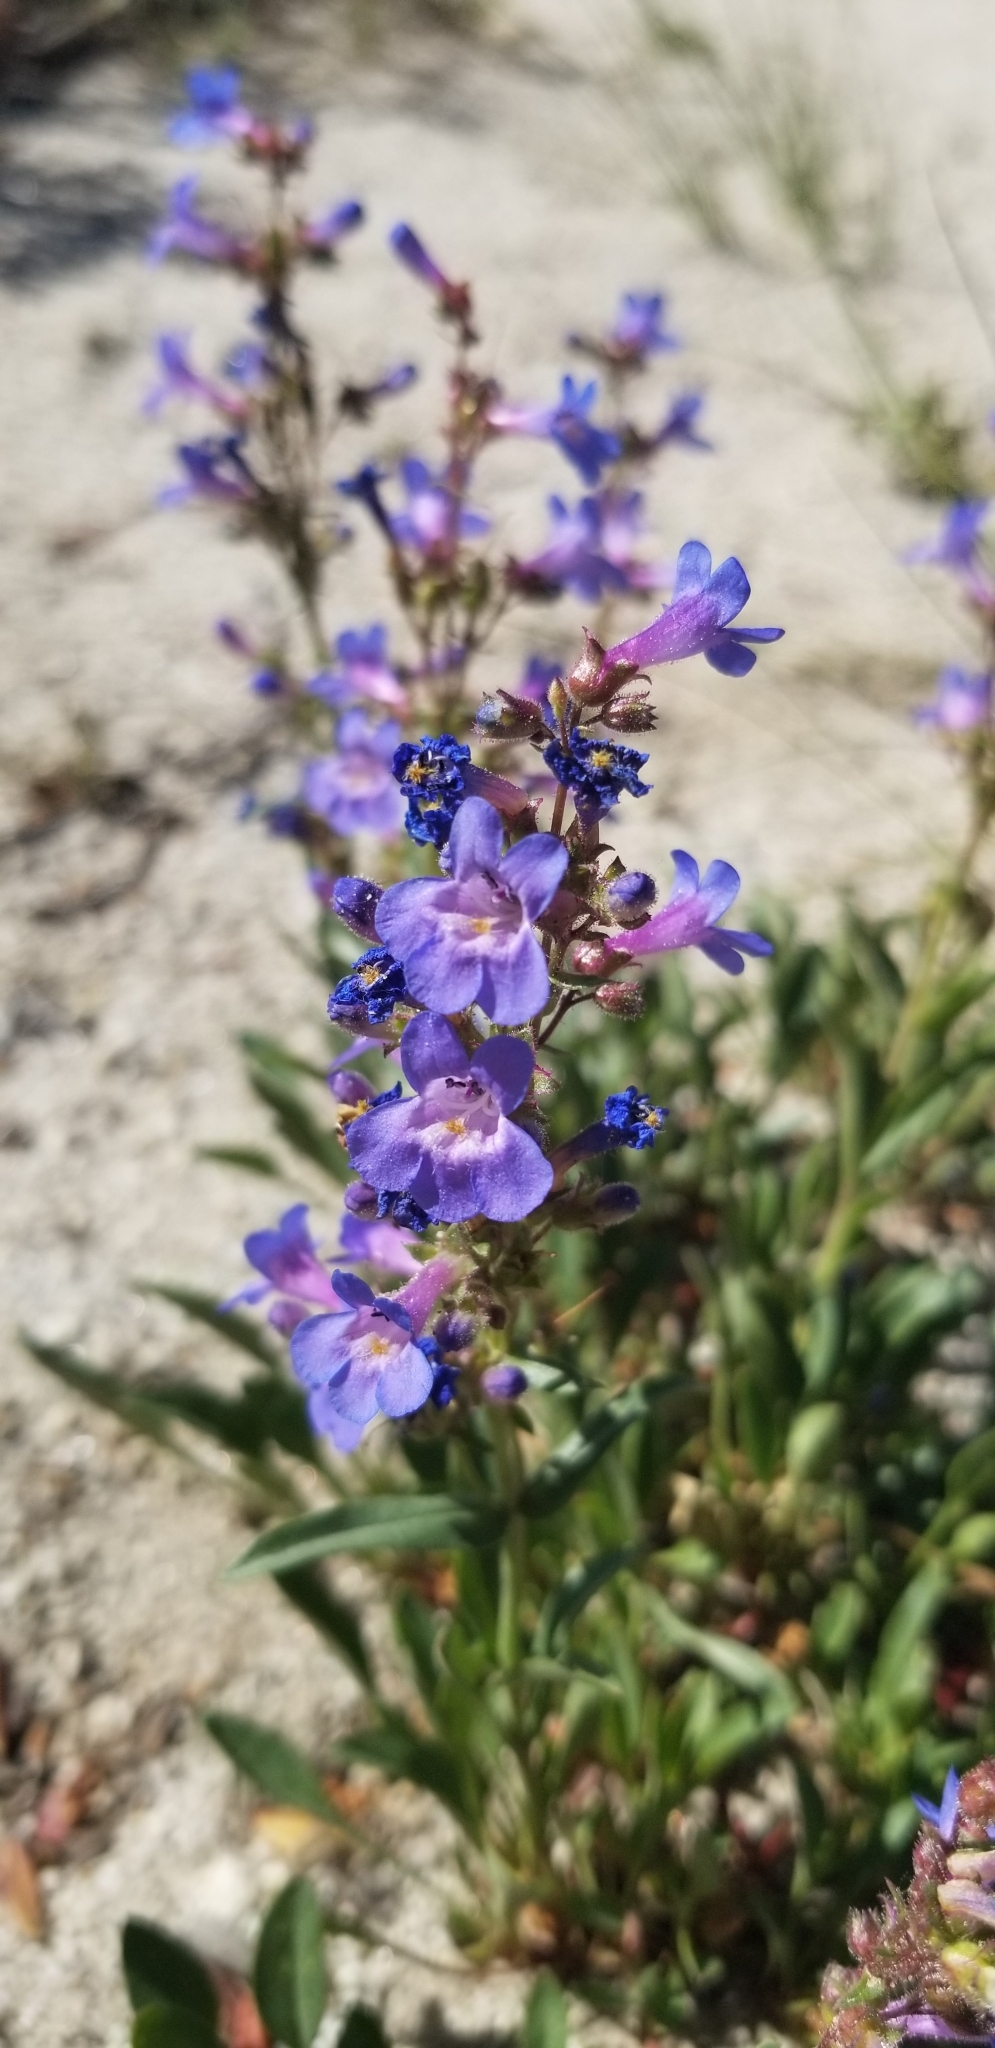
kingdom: Plantae
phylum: Tracheophyta
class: Magnoliopsida
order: Lamiales
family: Plantaginaceae
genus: Penstemon
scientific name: Penstemon humilis
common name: Low penstemon
